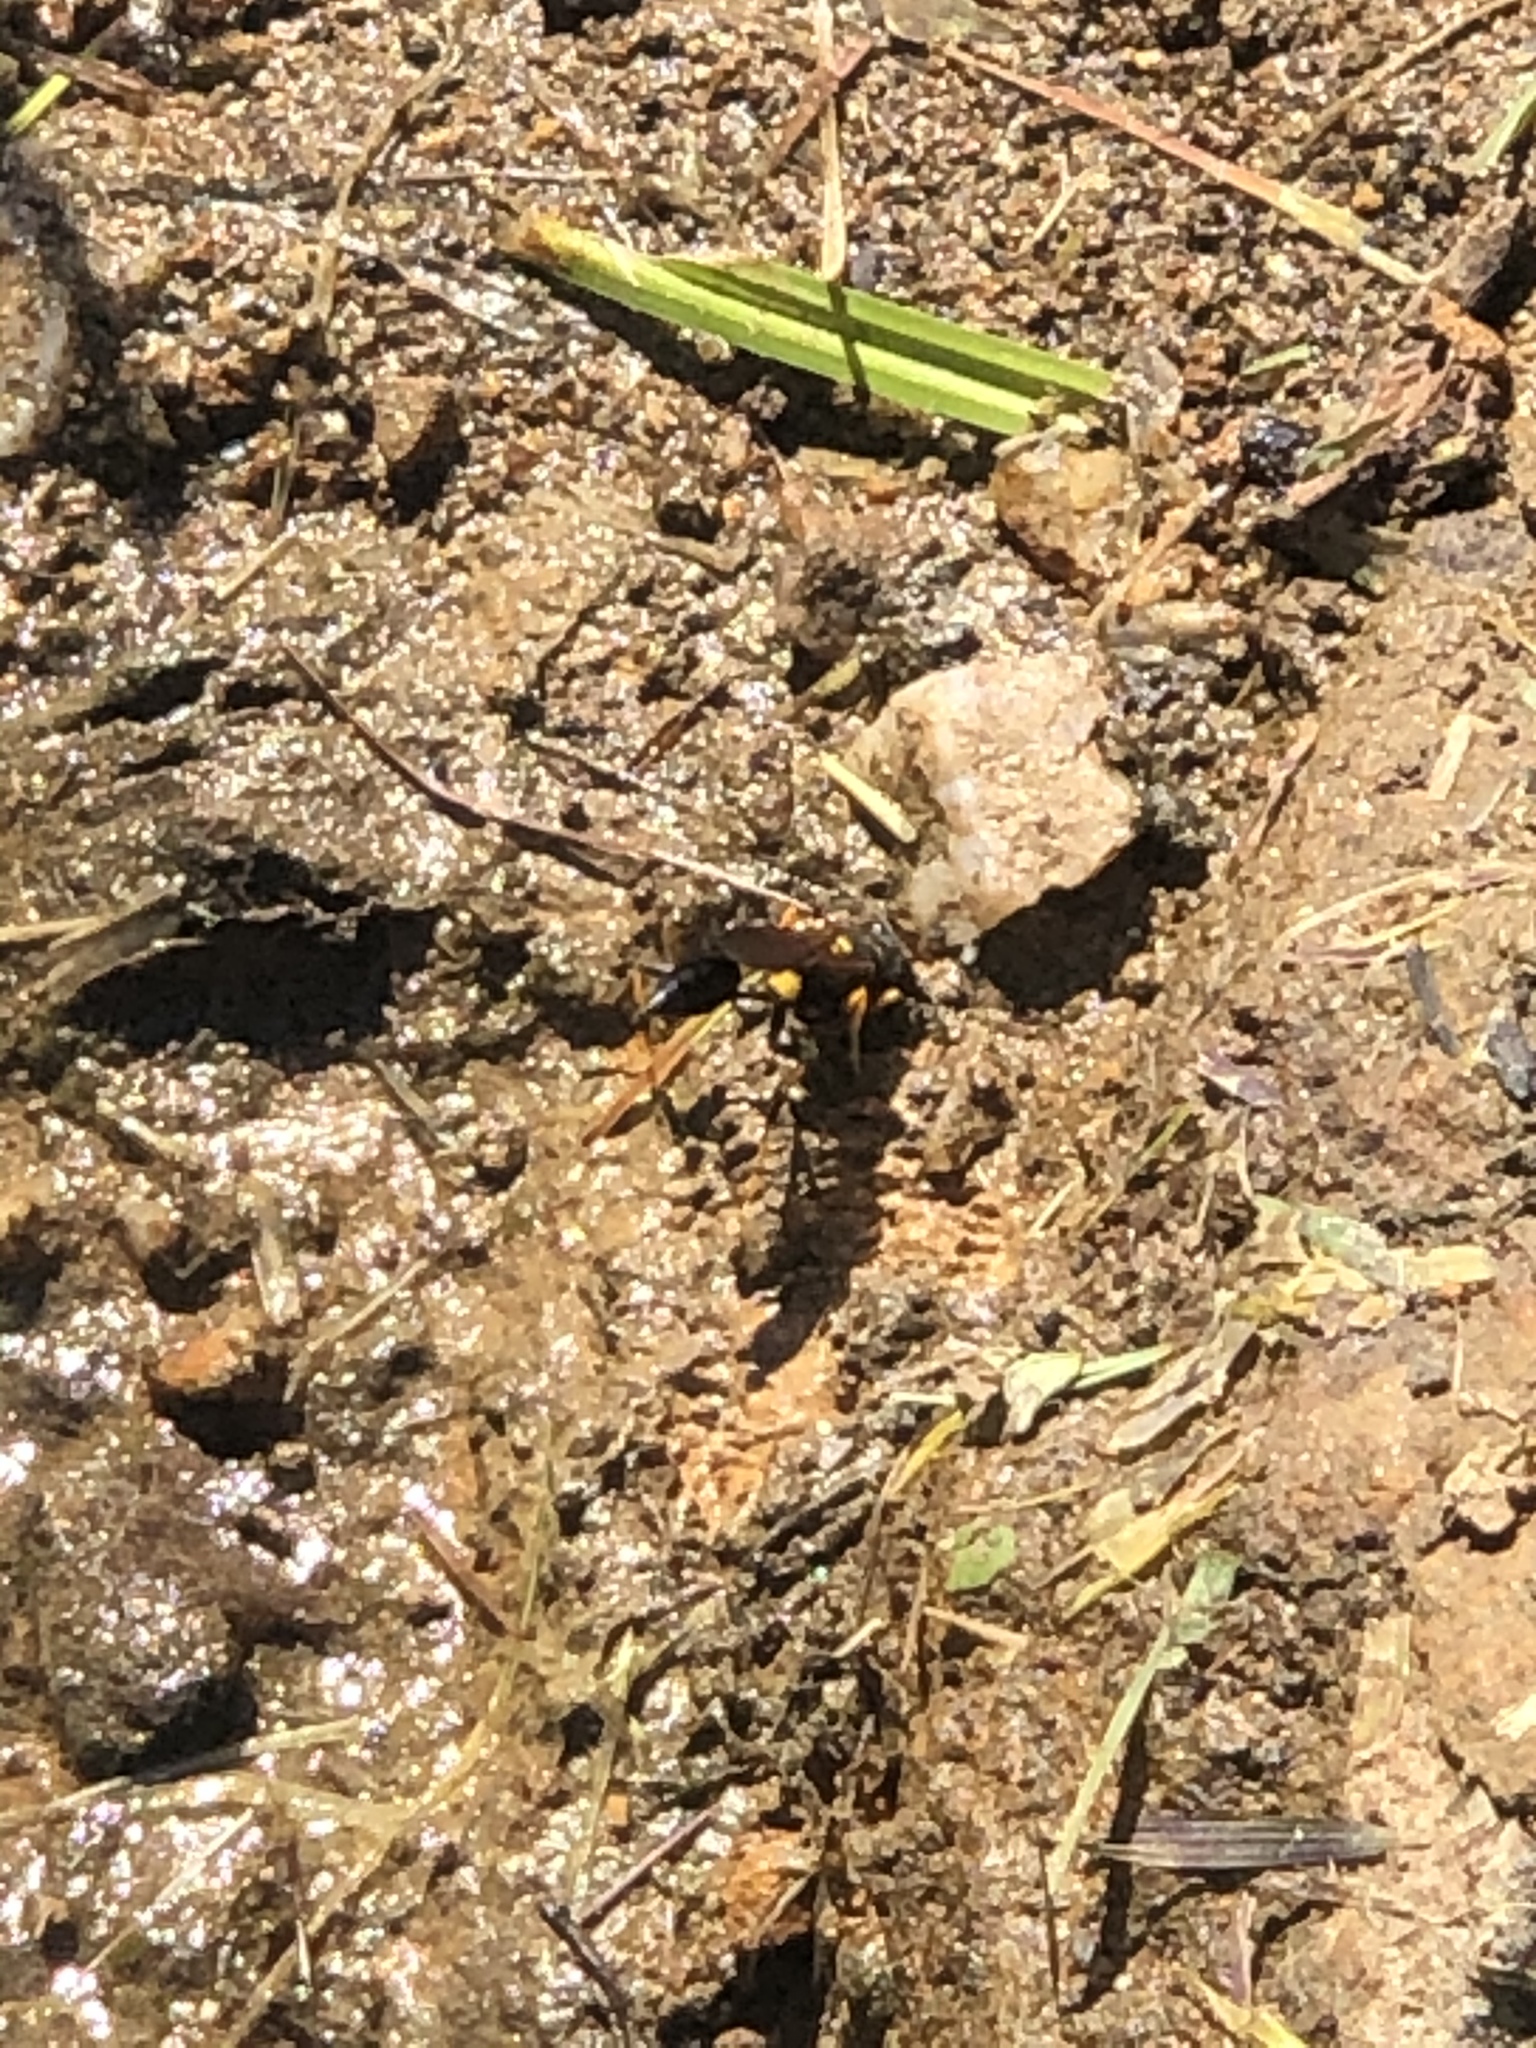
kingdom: Animalia
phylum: Arthropoda
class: Insecta
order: Hymenoptera
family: Sphecidae
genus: Sceliphron
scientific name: Sceliphron caementarium
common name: Mud dauber
